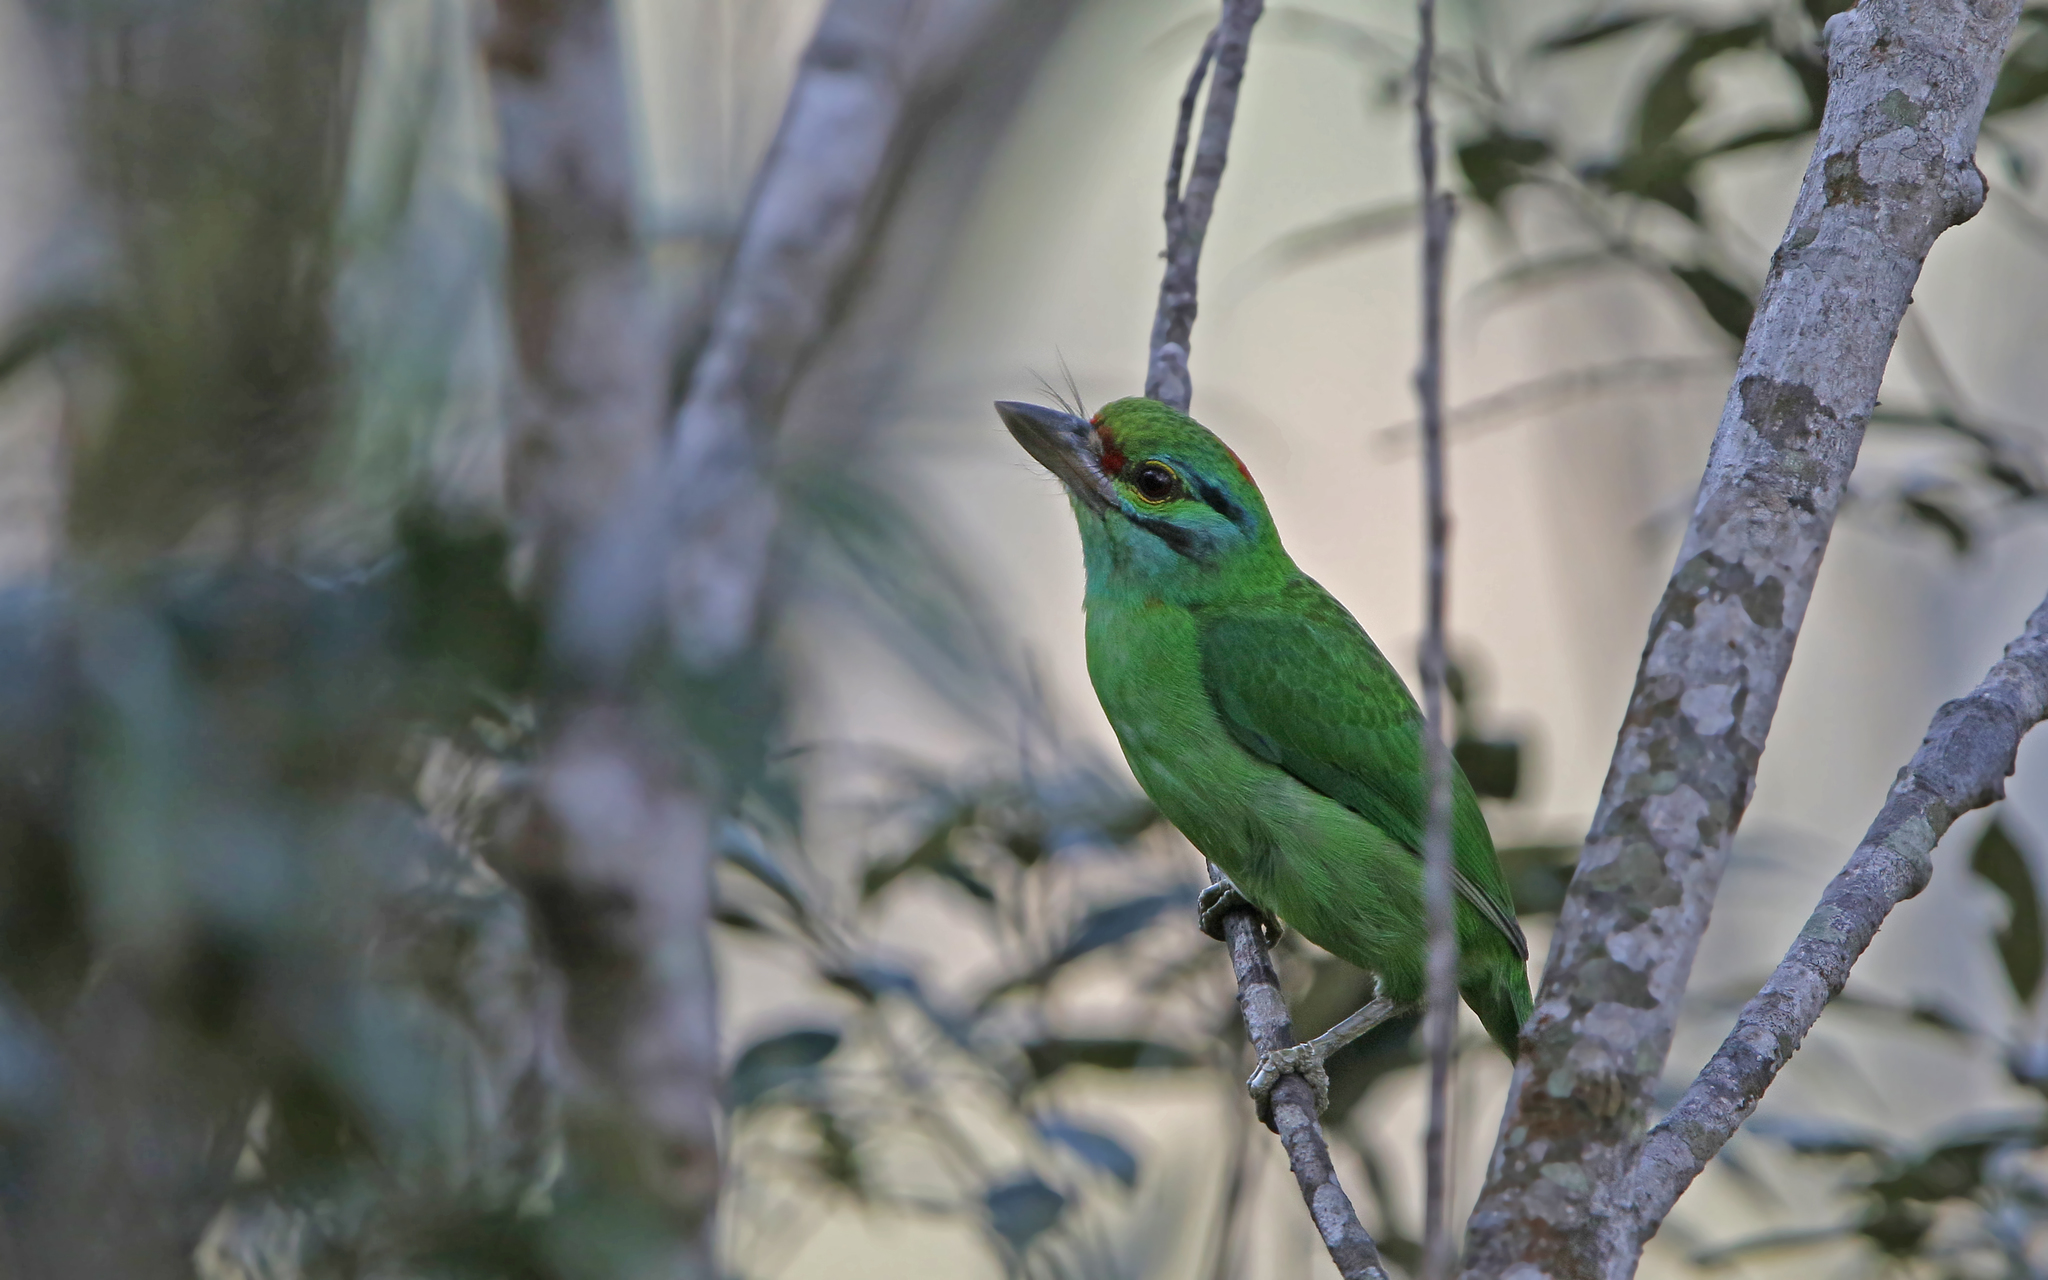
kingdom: Animalia
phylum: Chordata
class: Aves
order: Piciformes
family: Megalaimidae
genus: Psilopogon
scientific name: Psilopogon incognitus
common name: Moustached barbet
